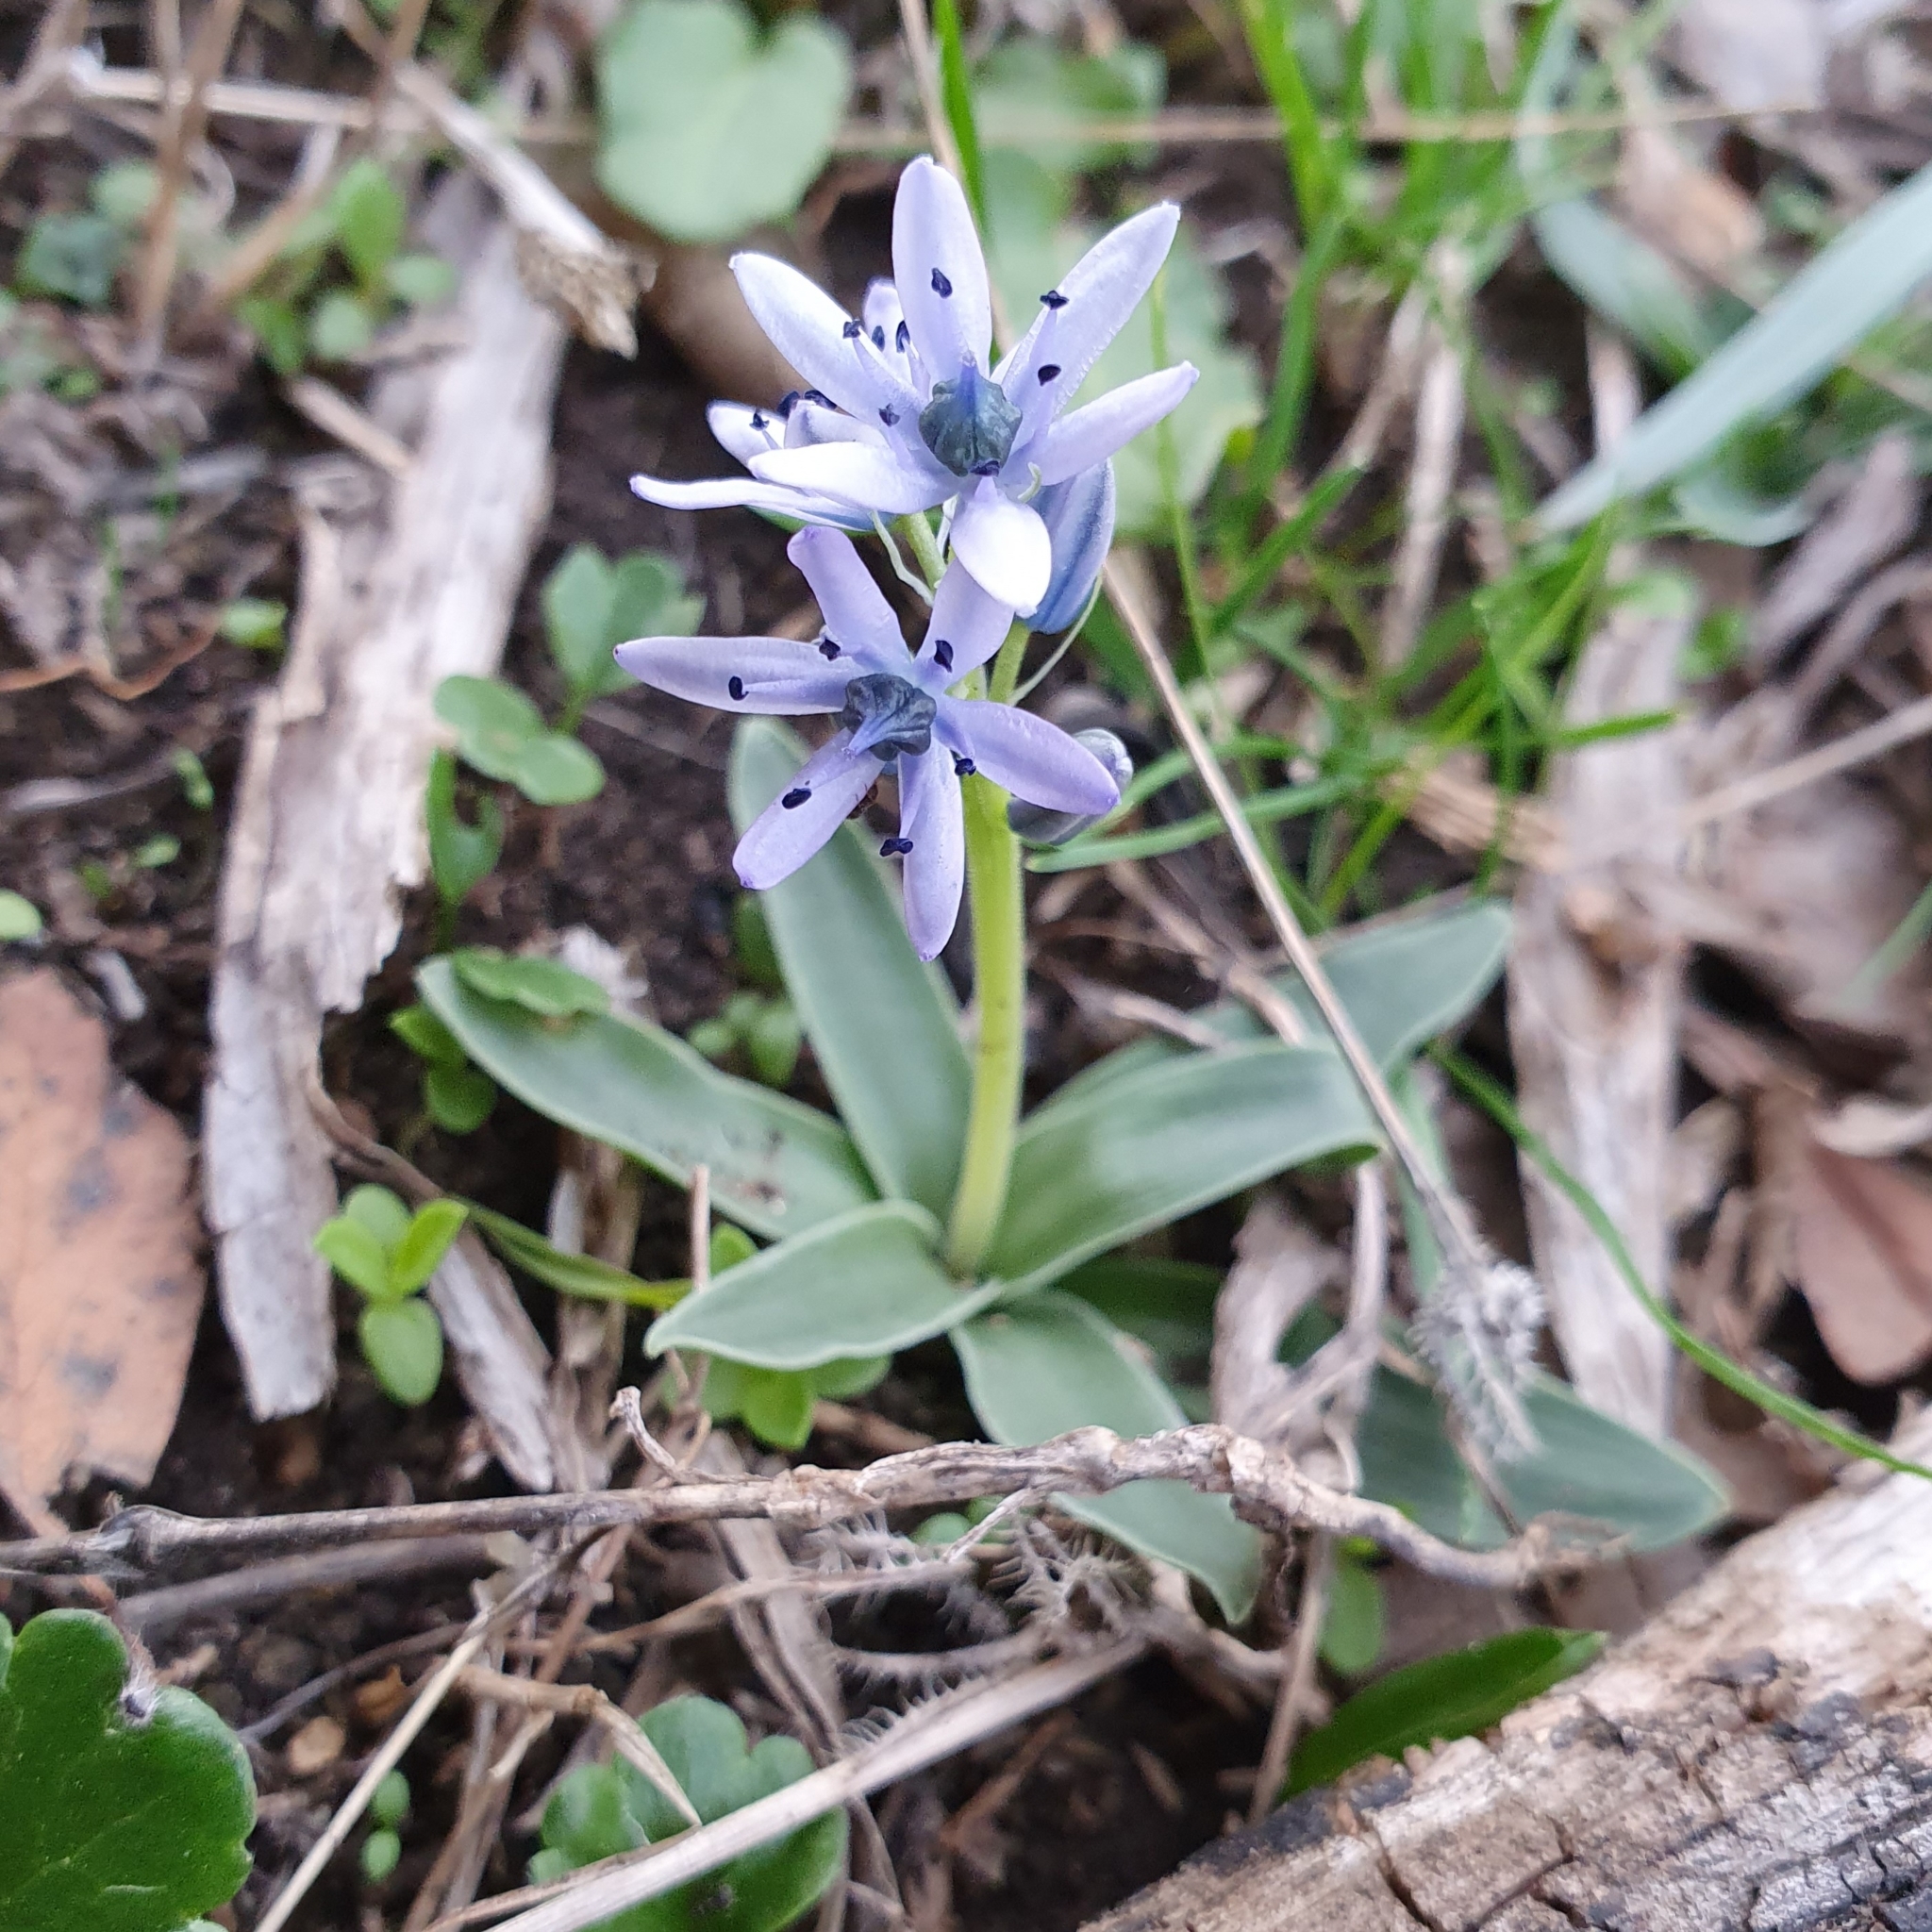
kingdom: Plantae
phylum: Tracheophyta
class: Liliopsida
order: Asparagales
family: Asparagaceae
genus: Hyacinthoides
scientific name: Hyacinthoides lingulata
